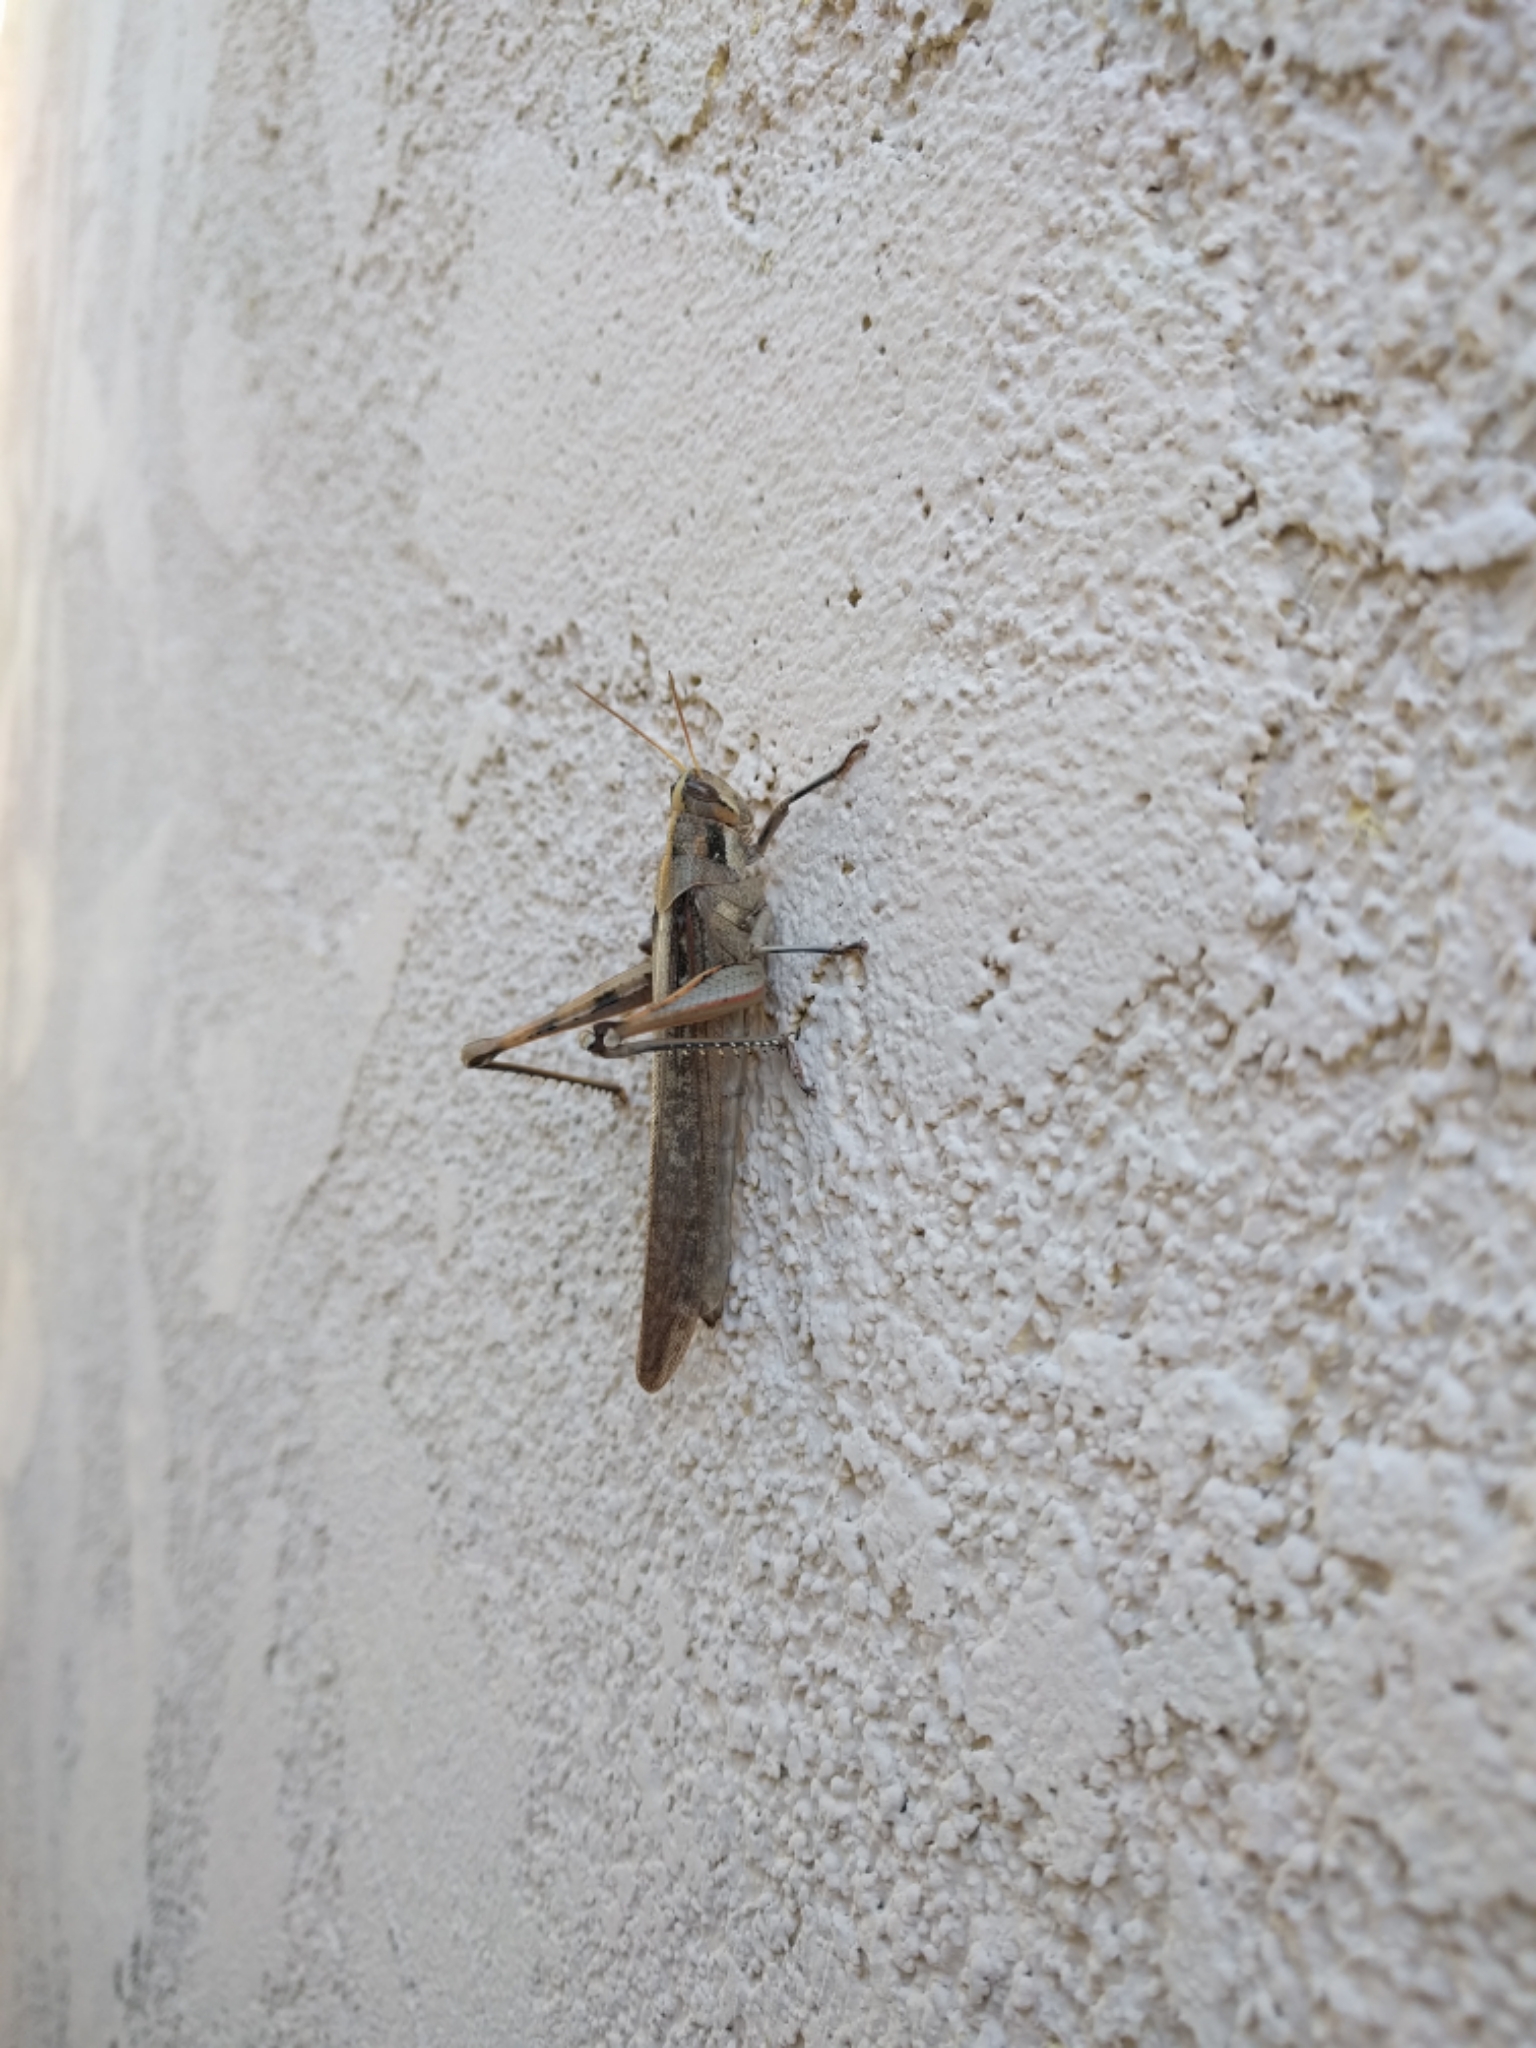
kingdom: Animalia
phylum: Arthropoda
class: Insecta
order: Orthoptera
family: Acrididae
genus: Schistocerca
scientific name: Schistocerca nitens
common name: Vagrant grasshopper
